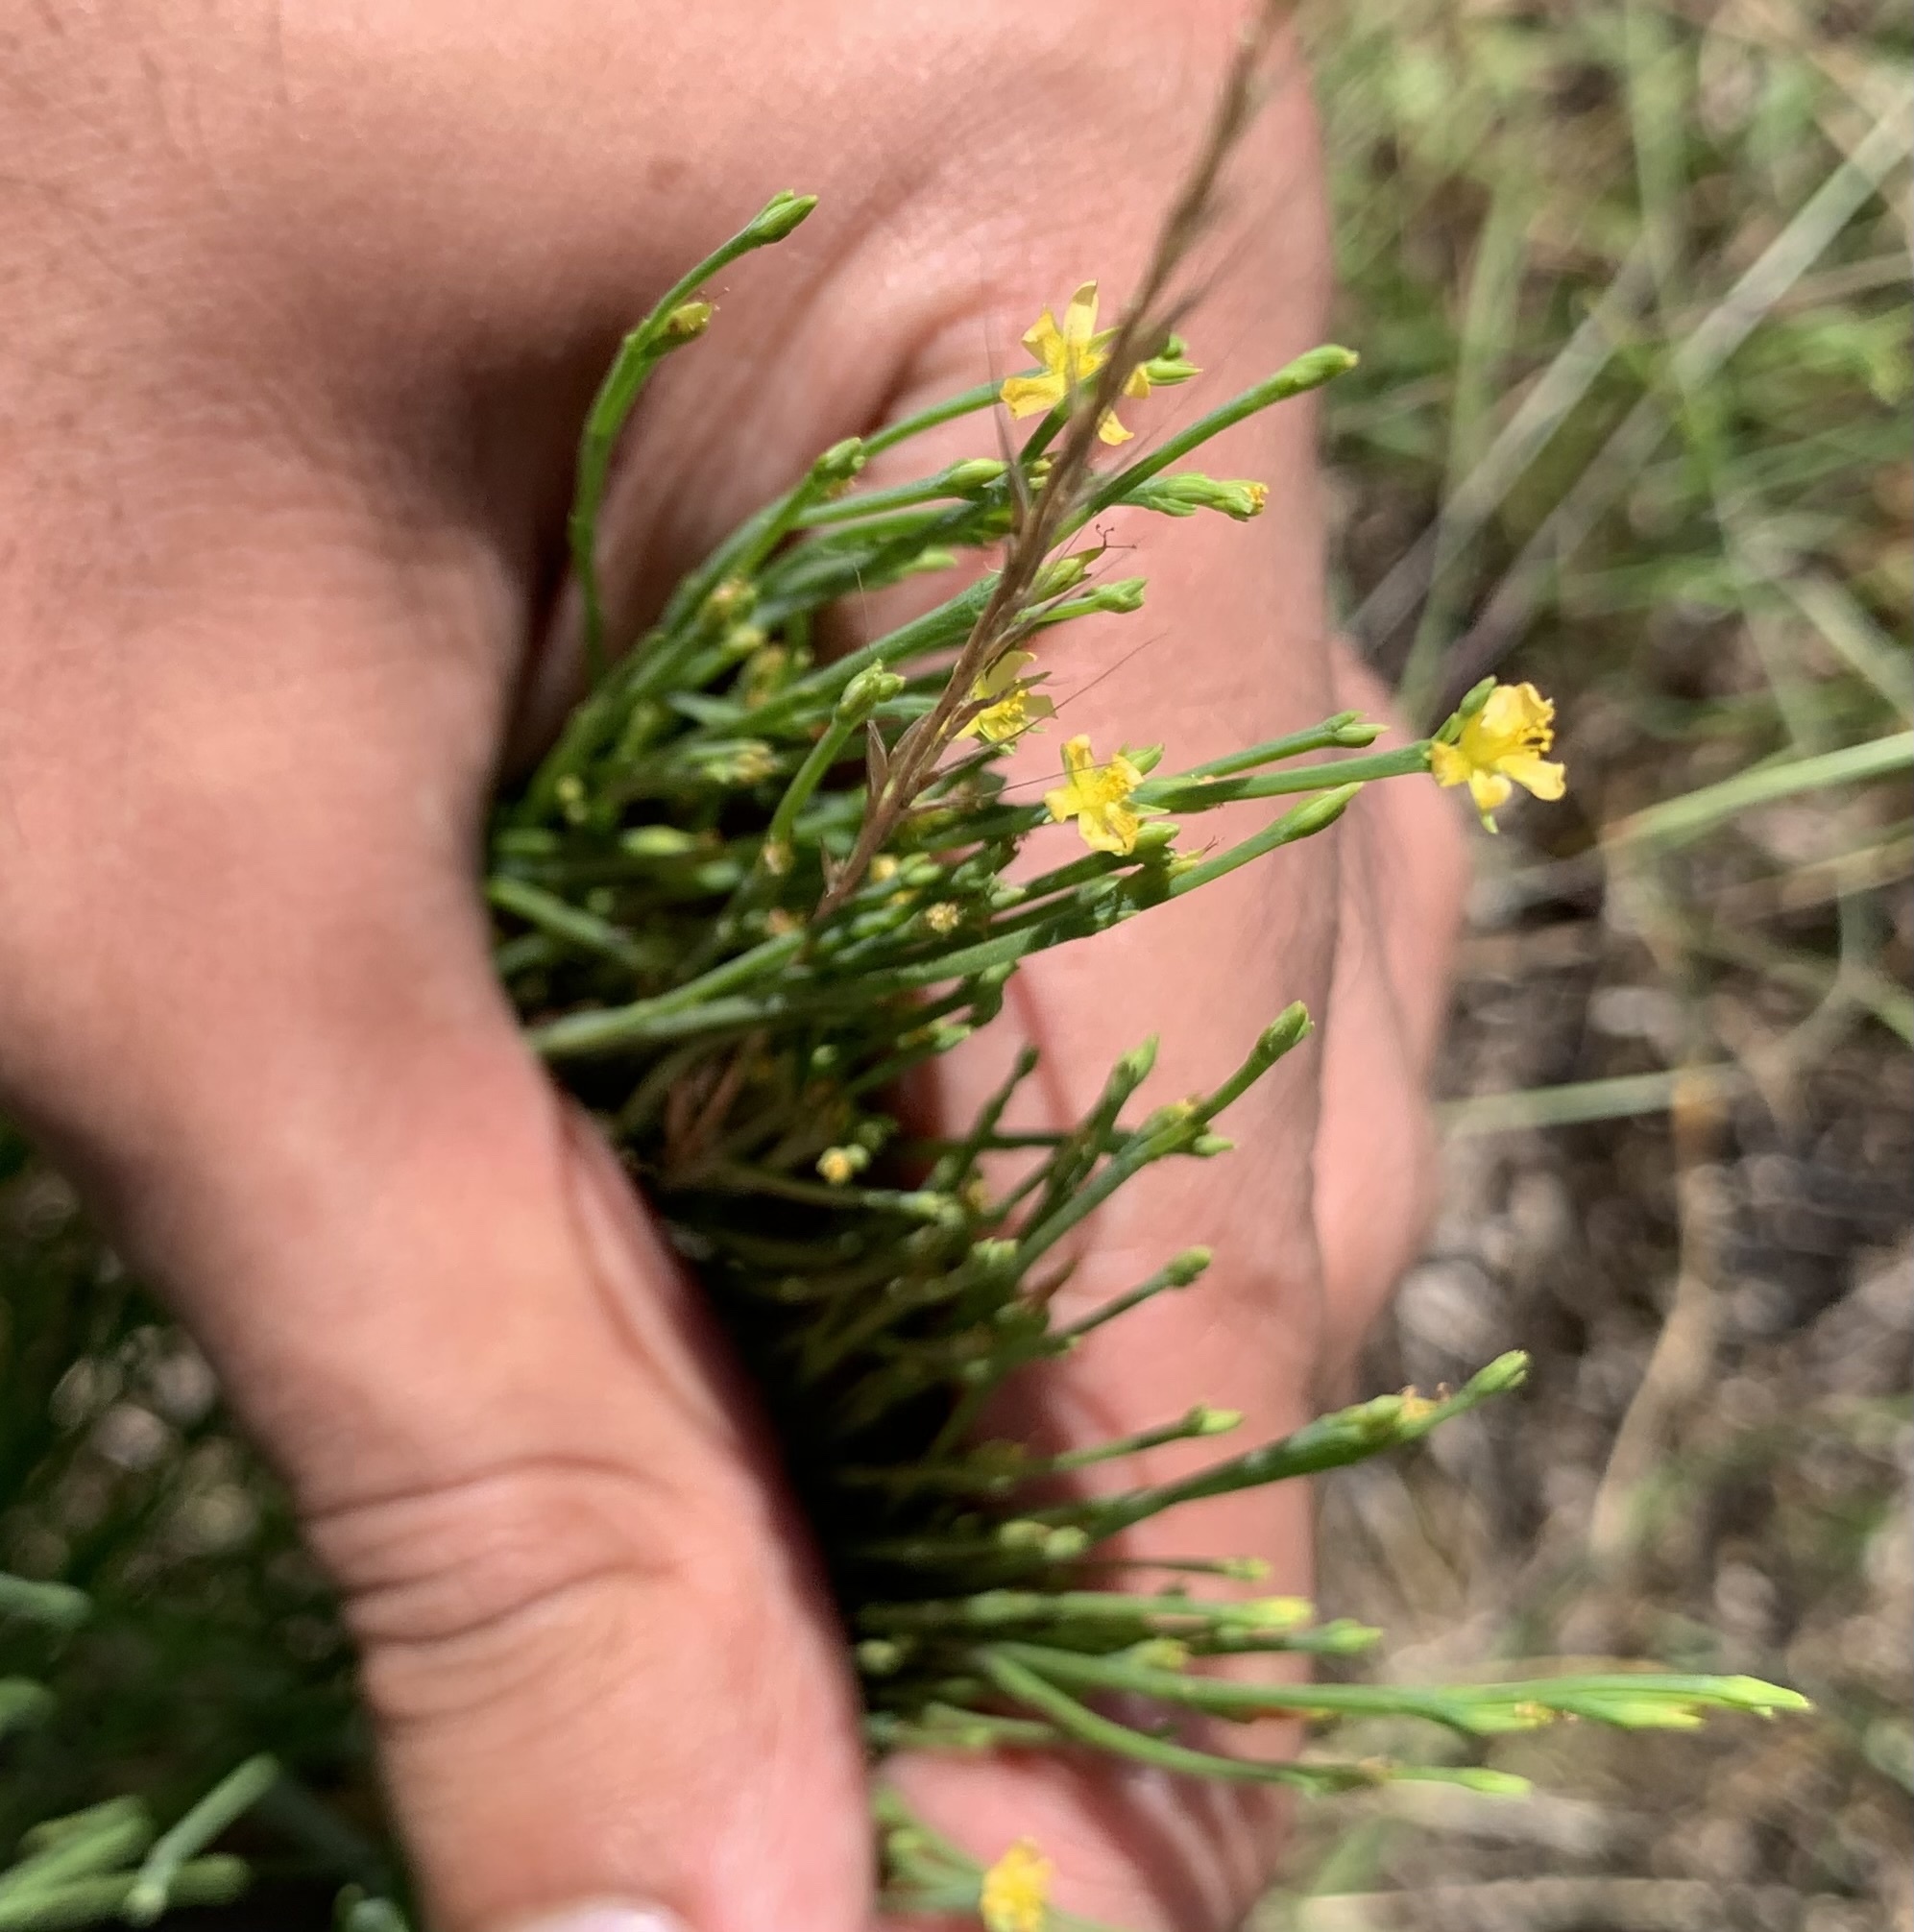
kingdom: Plantae
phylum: Tracheophyta
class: Magnoliopsida
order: Malpighiales
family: Hypericaceae
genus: Hypericum
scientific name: Hypericum gentianoides
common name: Gentian-leaved st. john's-wort
